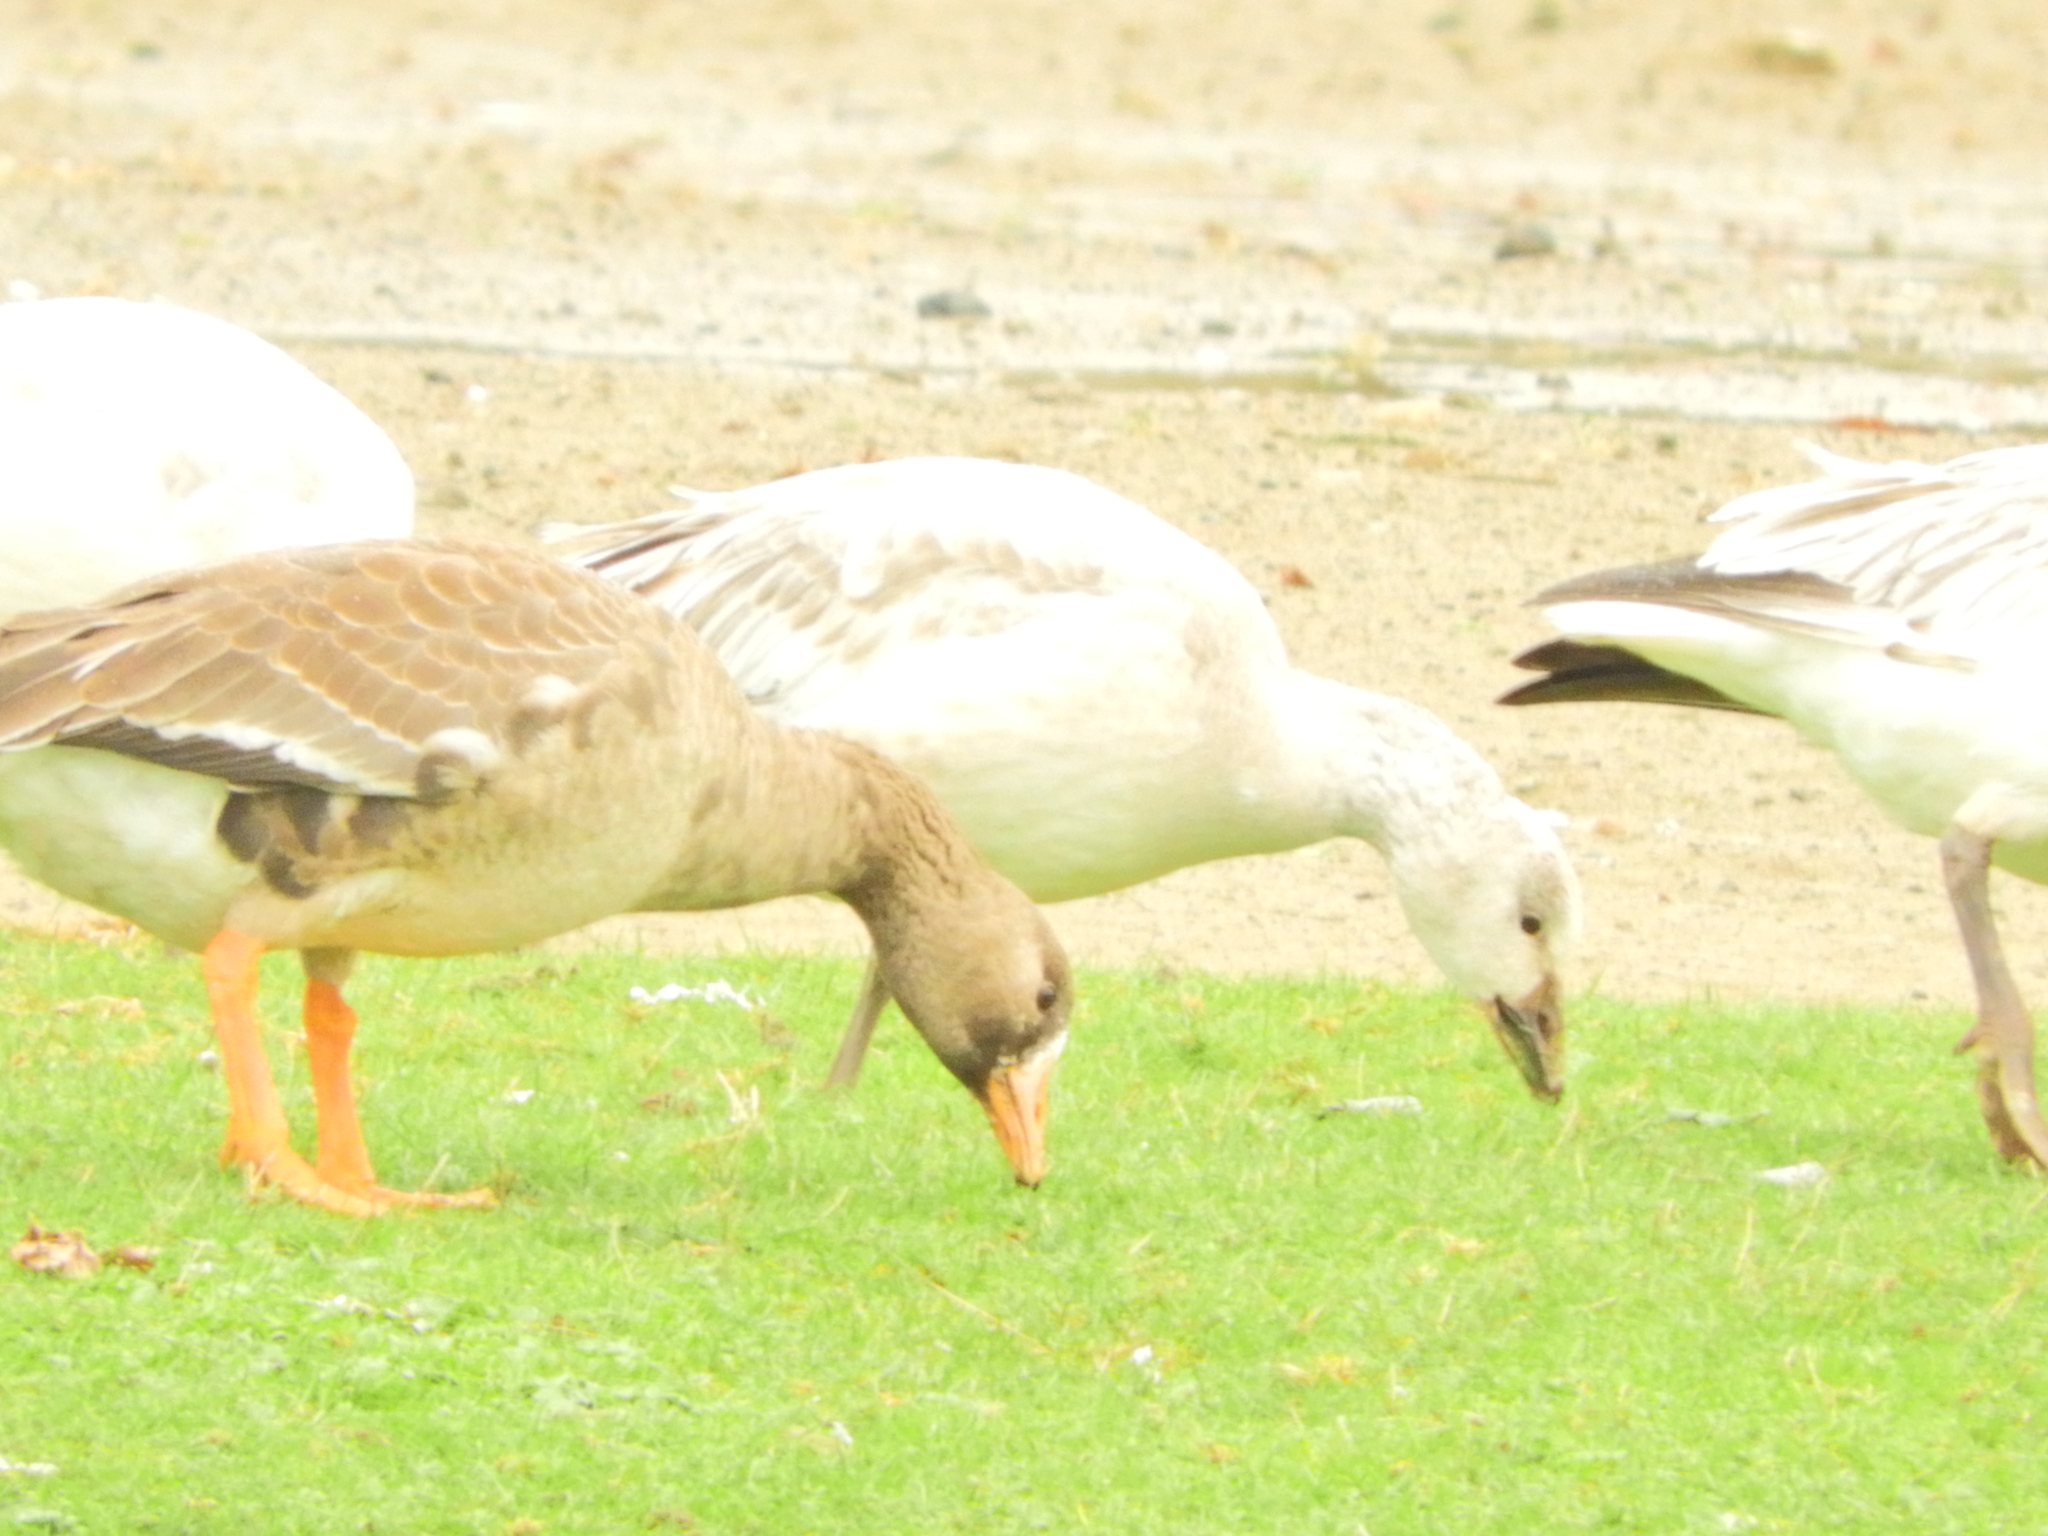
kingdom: Animalia
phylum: Chordata
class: Aves
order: Anseriformes
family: Anatidae
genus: Anser
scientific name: Anser albifrons
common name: Greater white-fronted goose
